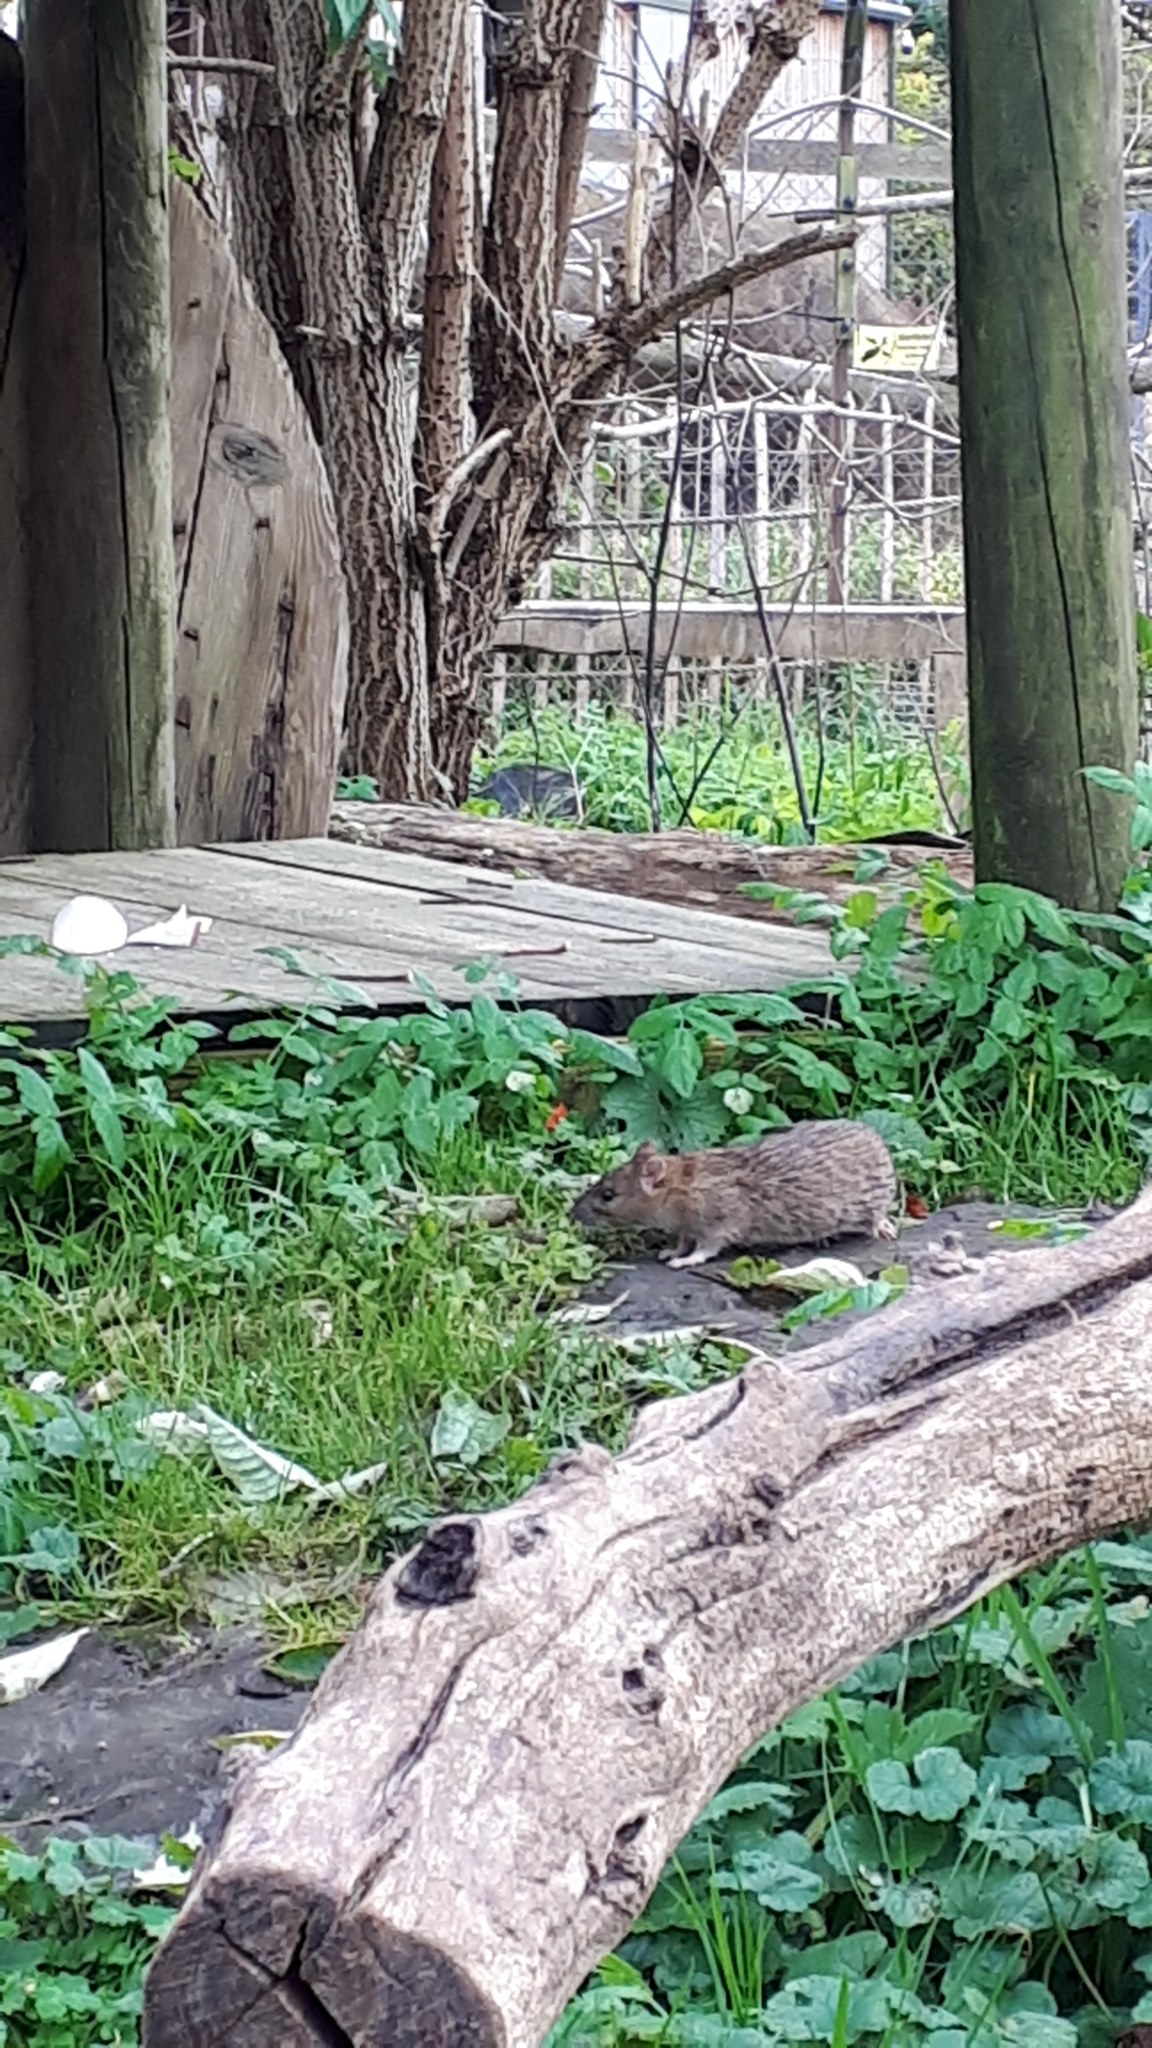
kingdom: Animalia
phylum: Chordata
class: Mammalia
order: Rodentia
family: Muridae
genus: Rattus
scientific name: Rattus norvegicus
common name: Brown rat
